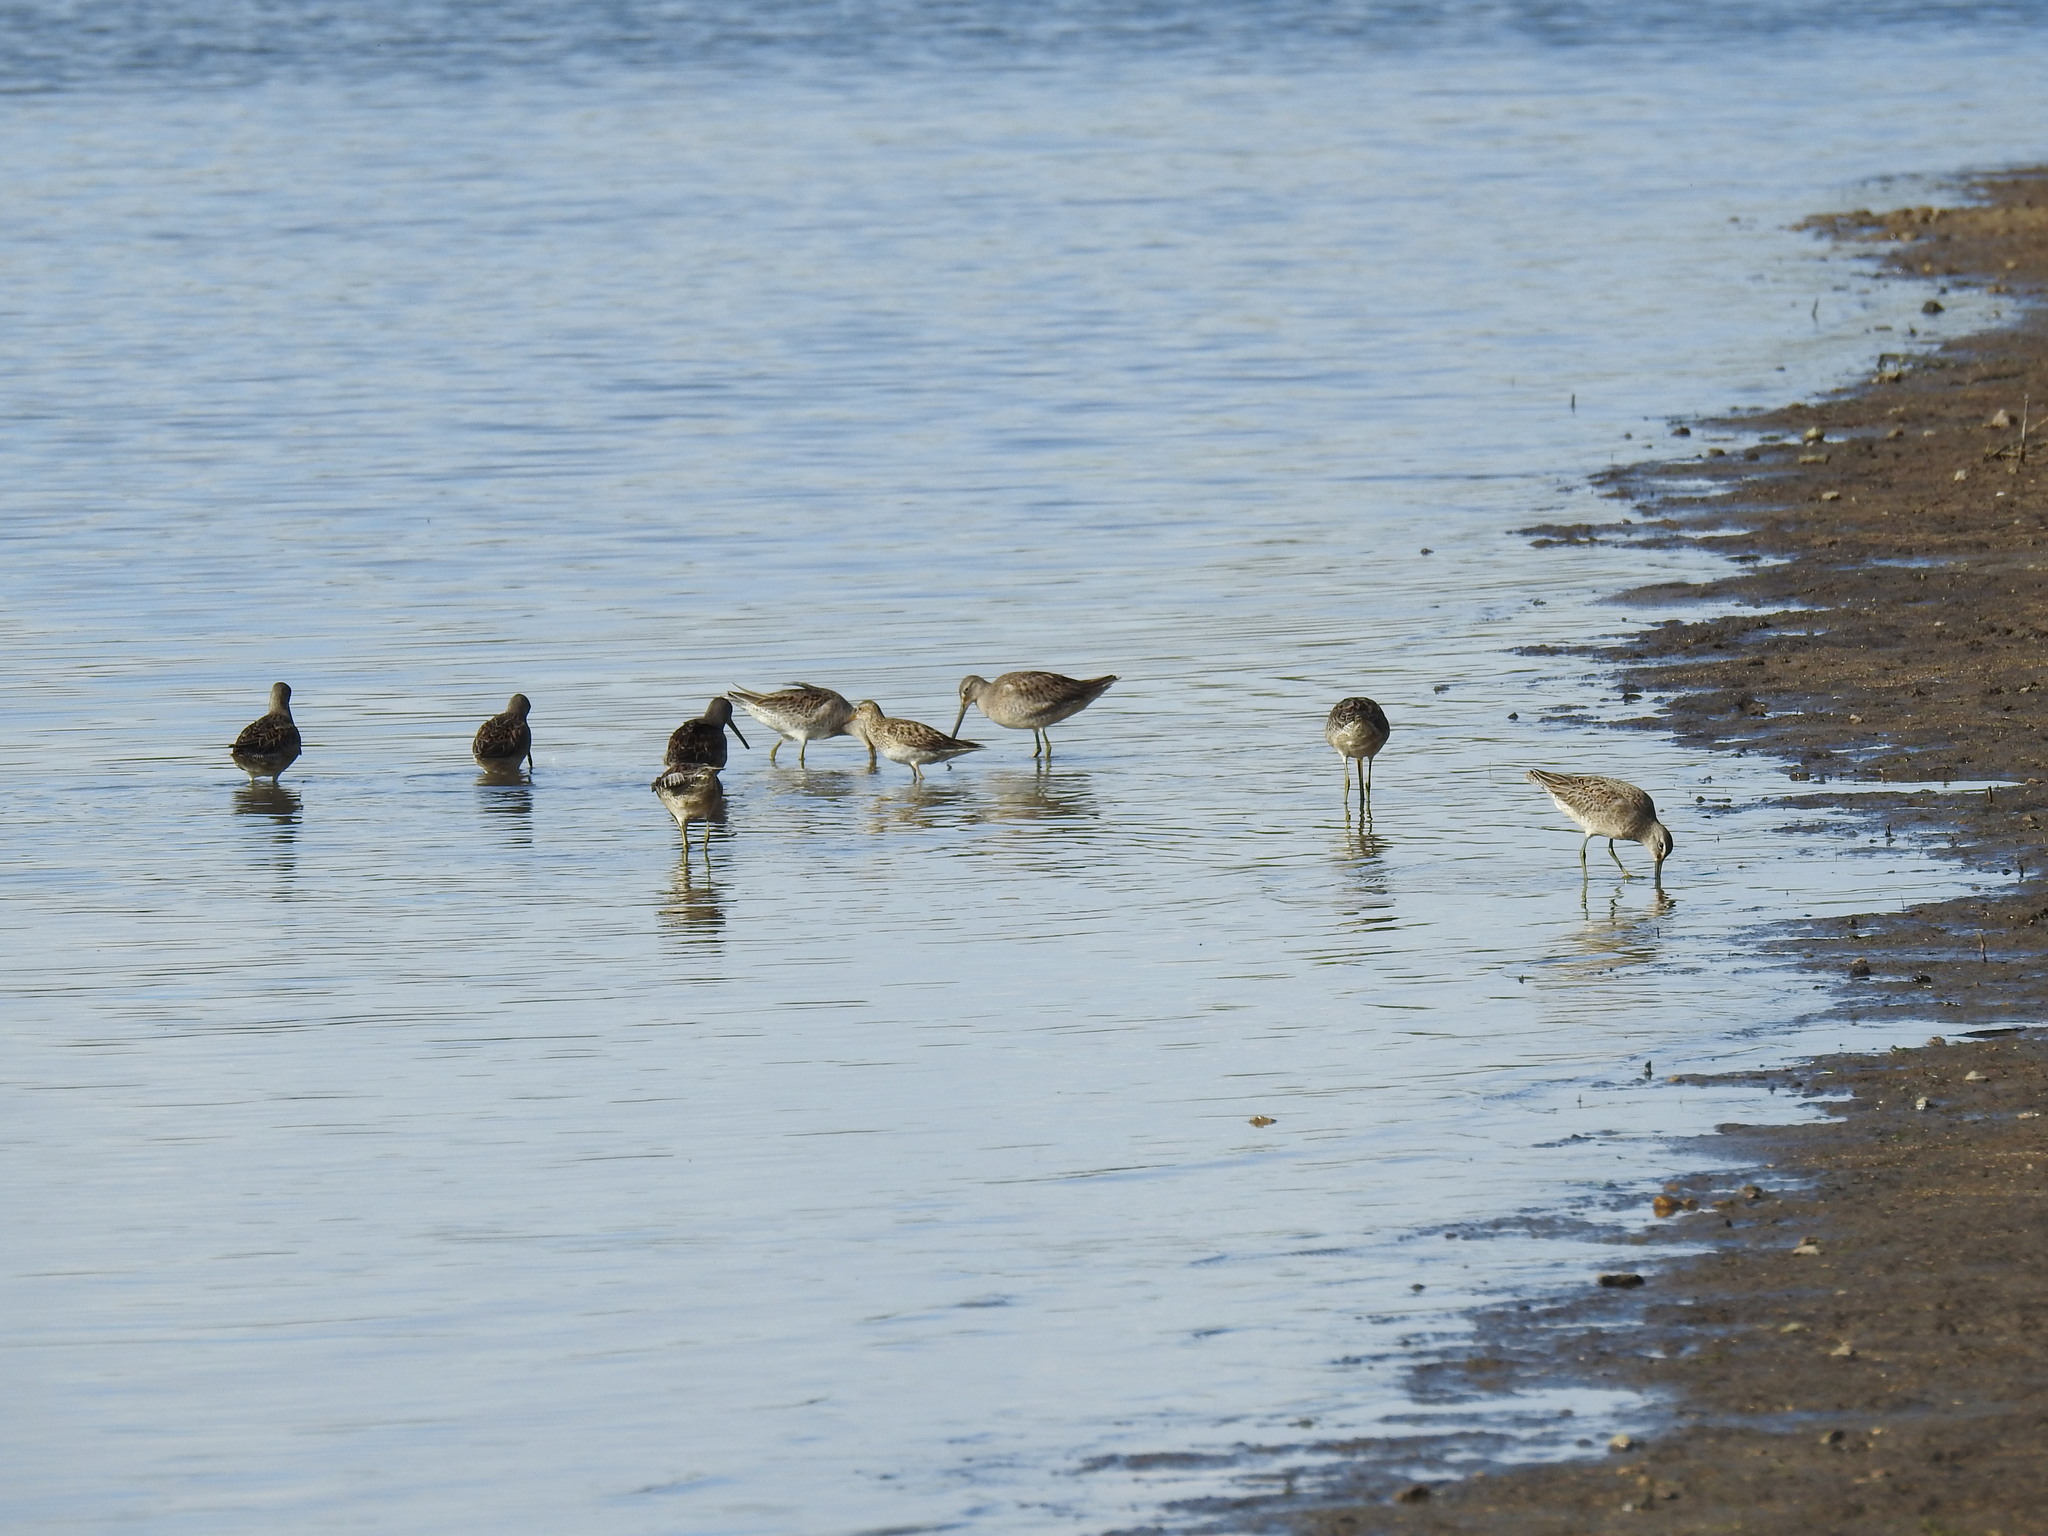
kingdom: Animalia
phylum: Chordata
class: Aves
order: Charadriiformes
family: Scolopacidae
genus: Calidris
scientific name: Calidris melanotos
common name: Pectoral sandpiper
